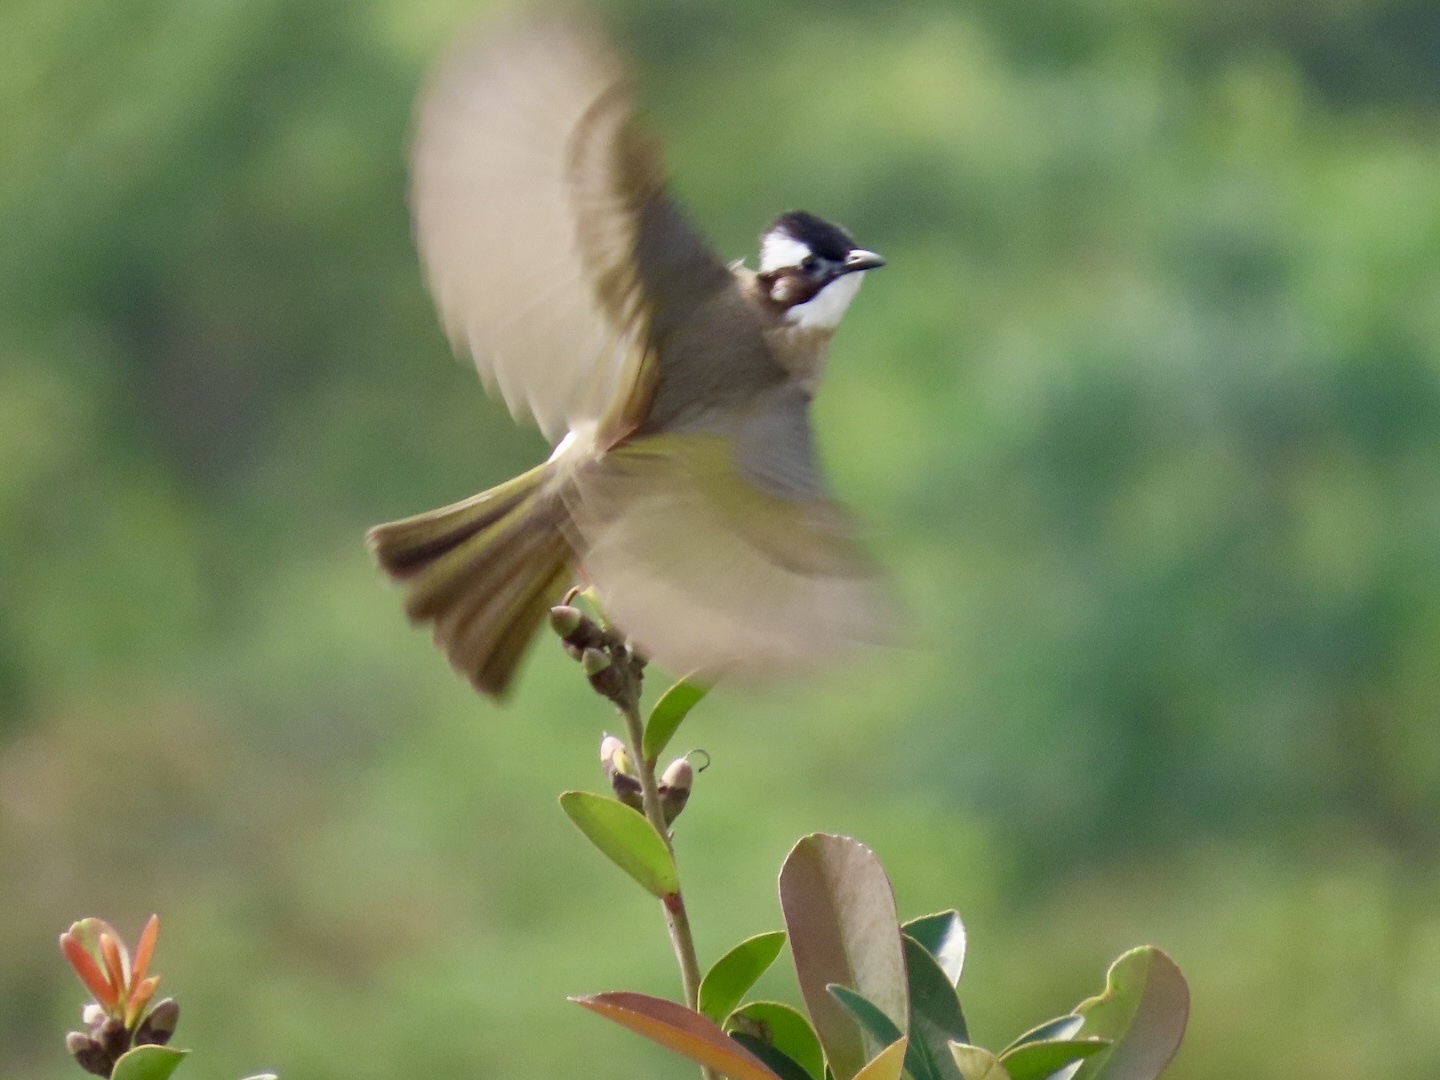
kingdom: Animalia
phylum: Chordata
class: Aves
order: Passeriformes
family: Pycnonotidae
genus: Pycnonotus
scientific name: Pycnonotus sinensis
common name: Light-vented bulbul
